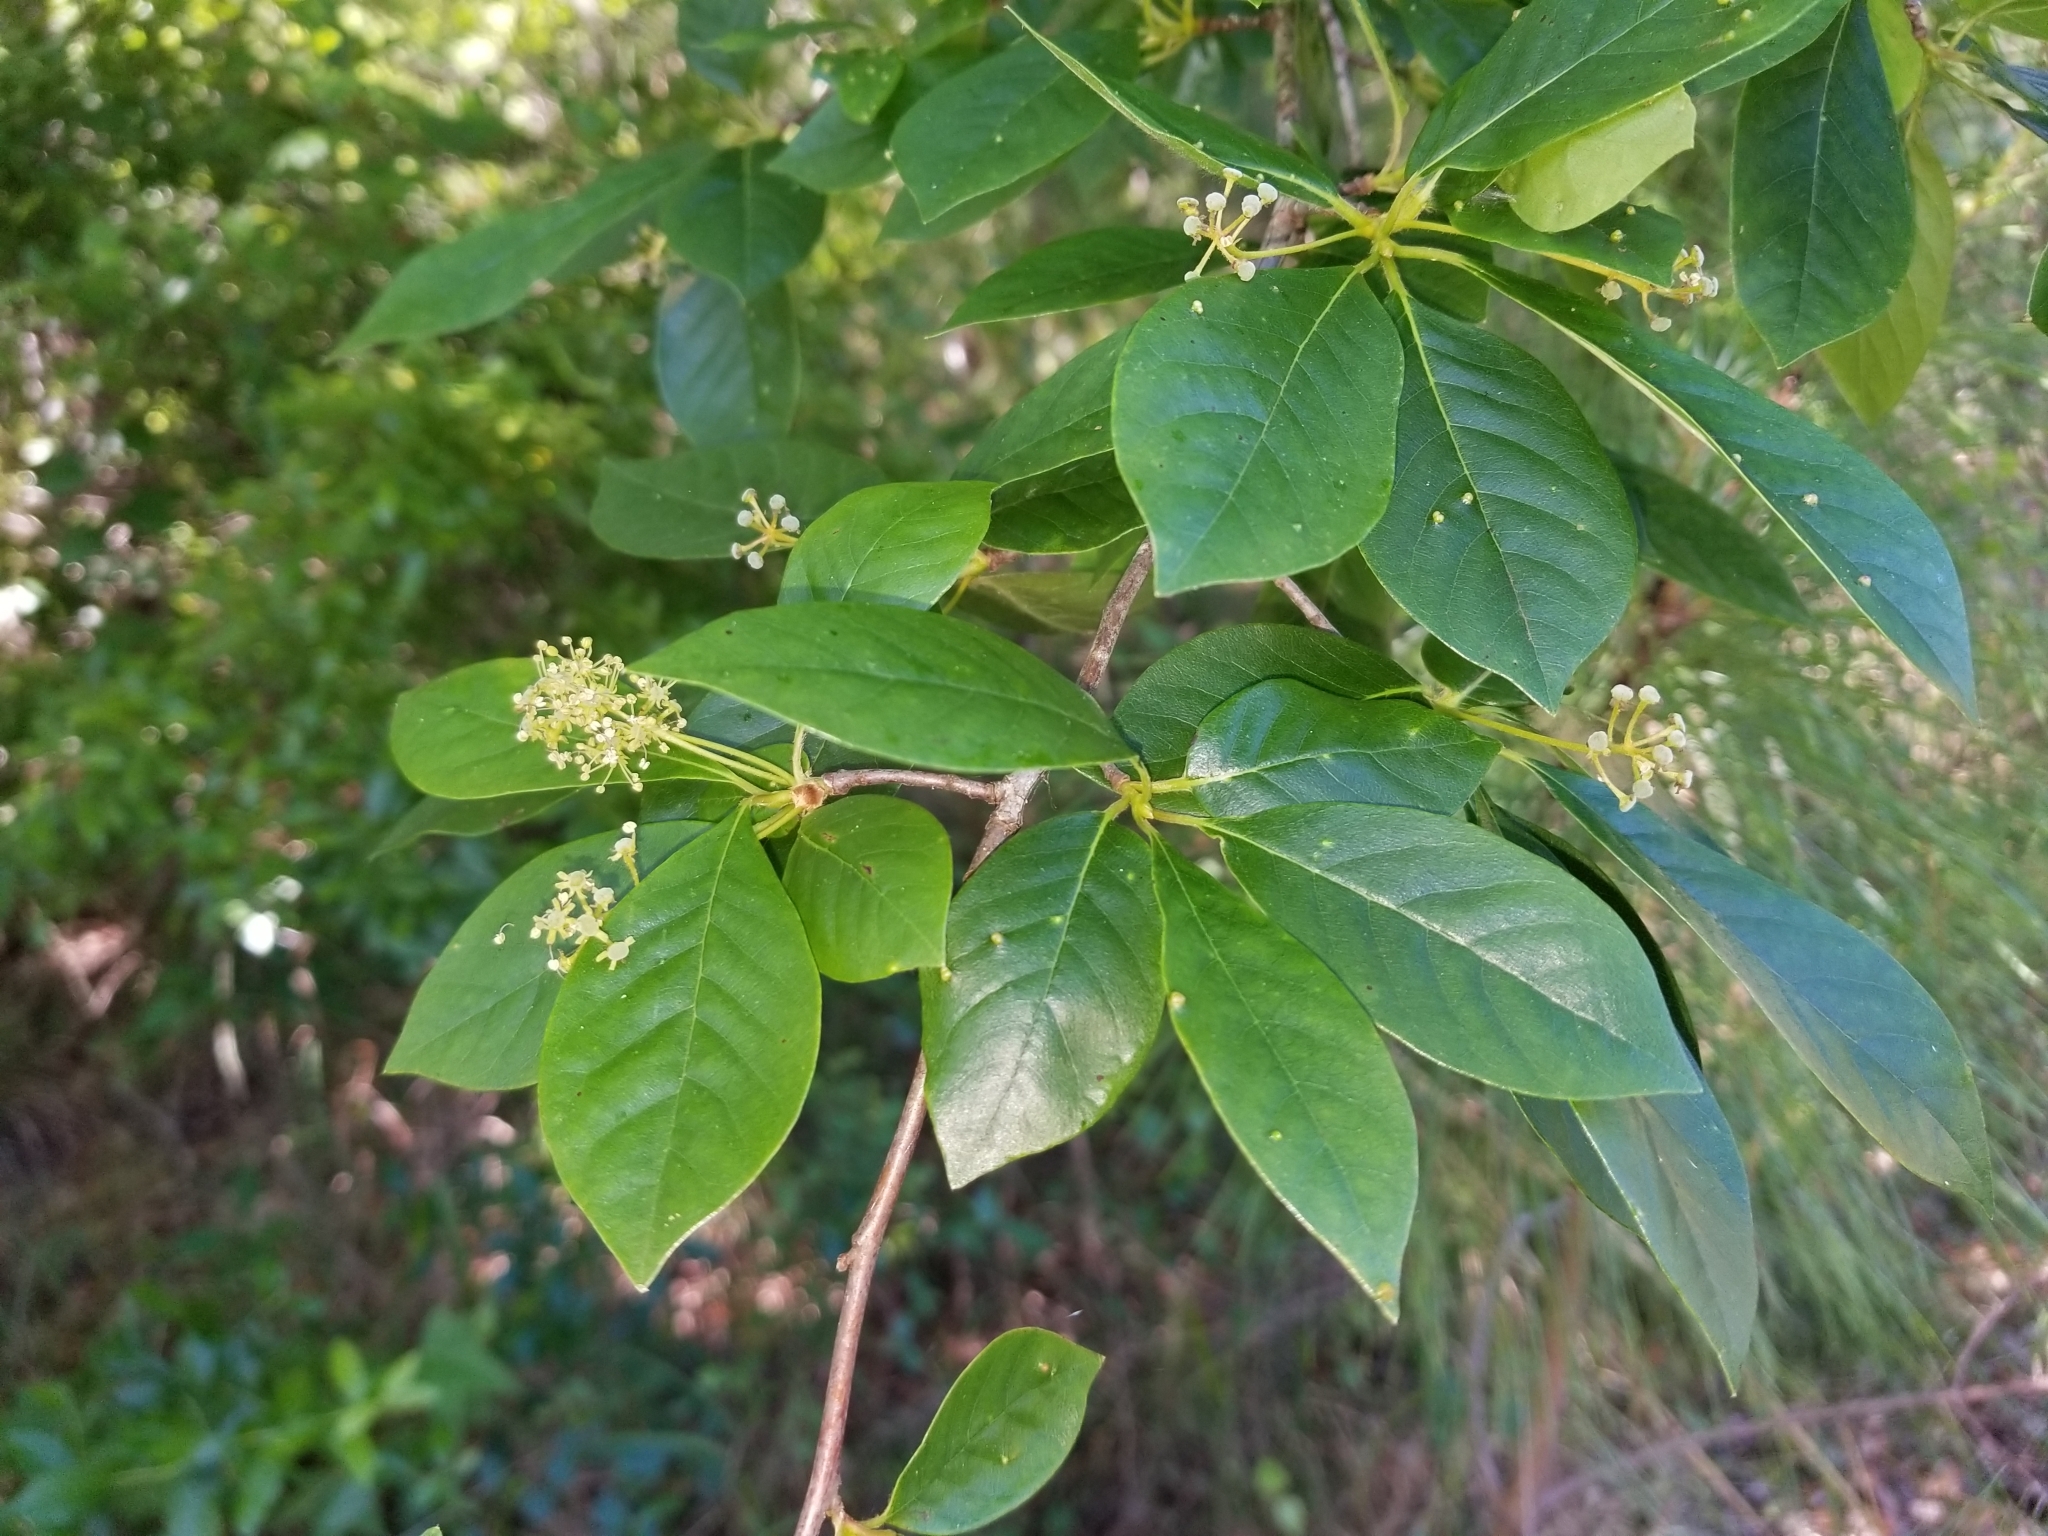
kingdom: Plantae
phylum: Tracheophyta
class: Magnoliopsida
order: Cornales
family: Nyssaceae
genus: Nyssa
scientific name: Nyssa sylvatica
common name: Black tupelo
